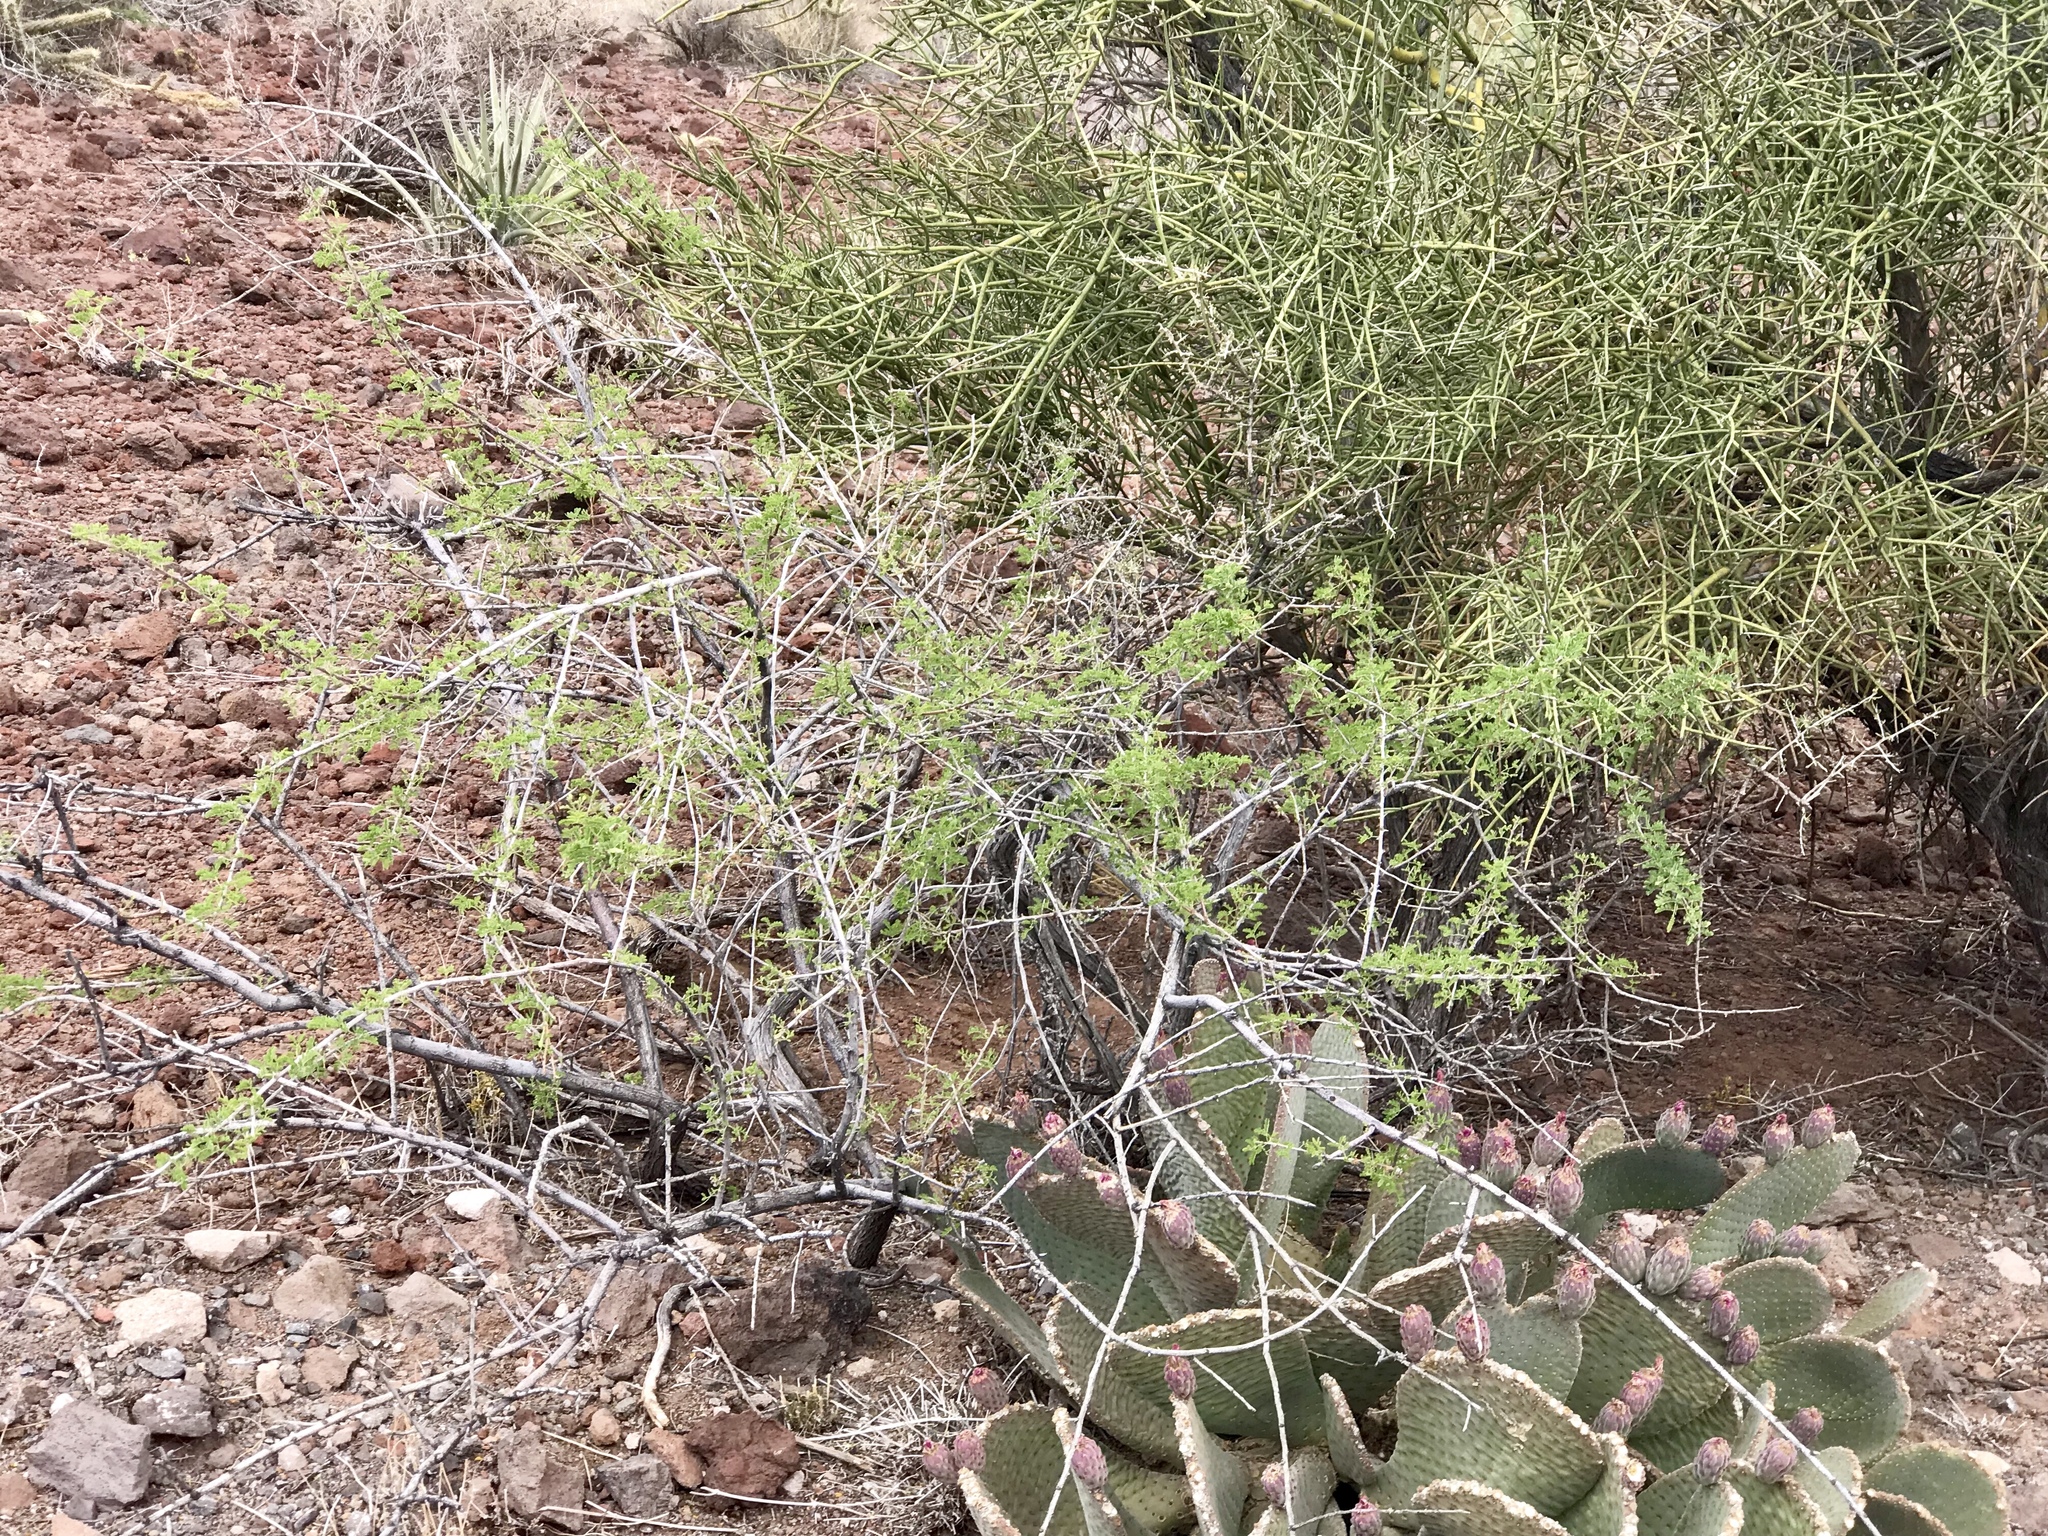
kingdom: Plantae
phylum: Tracheophyta
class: Magnoliopsida
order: Fabales
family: Fabaceae
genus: Senegalia
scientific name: Senegalia greggii
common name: Texas-mimosa
